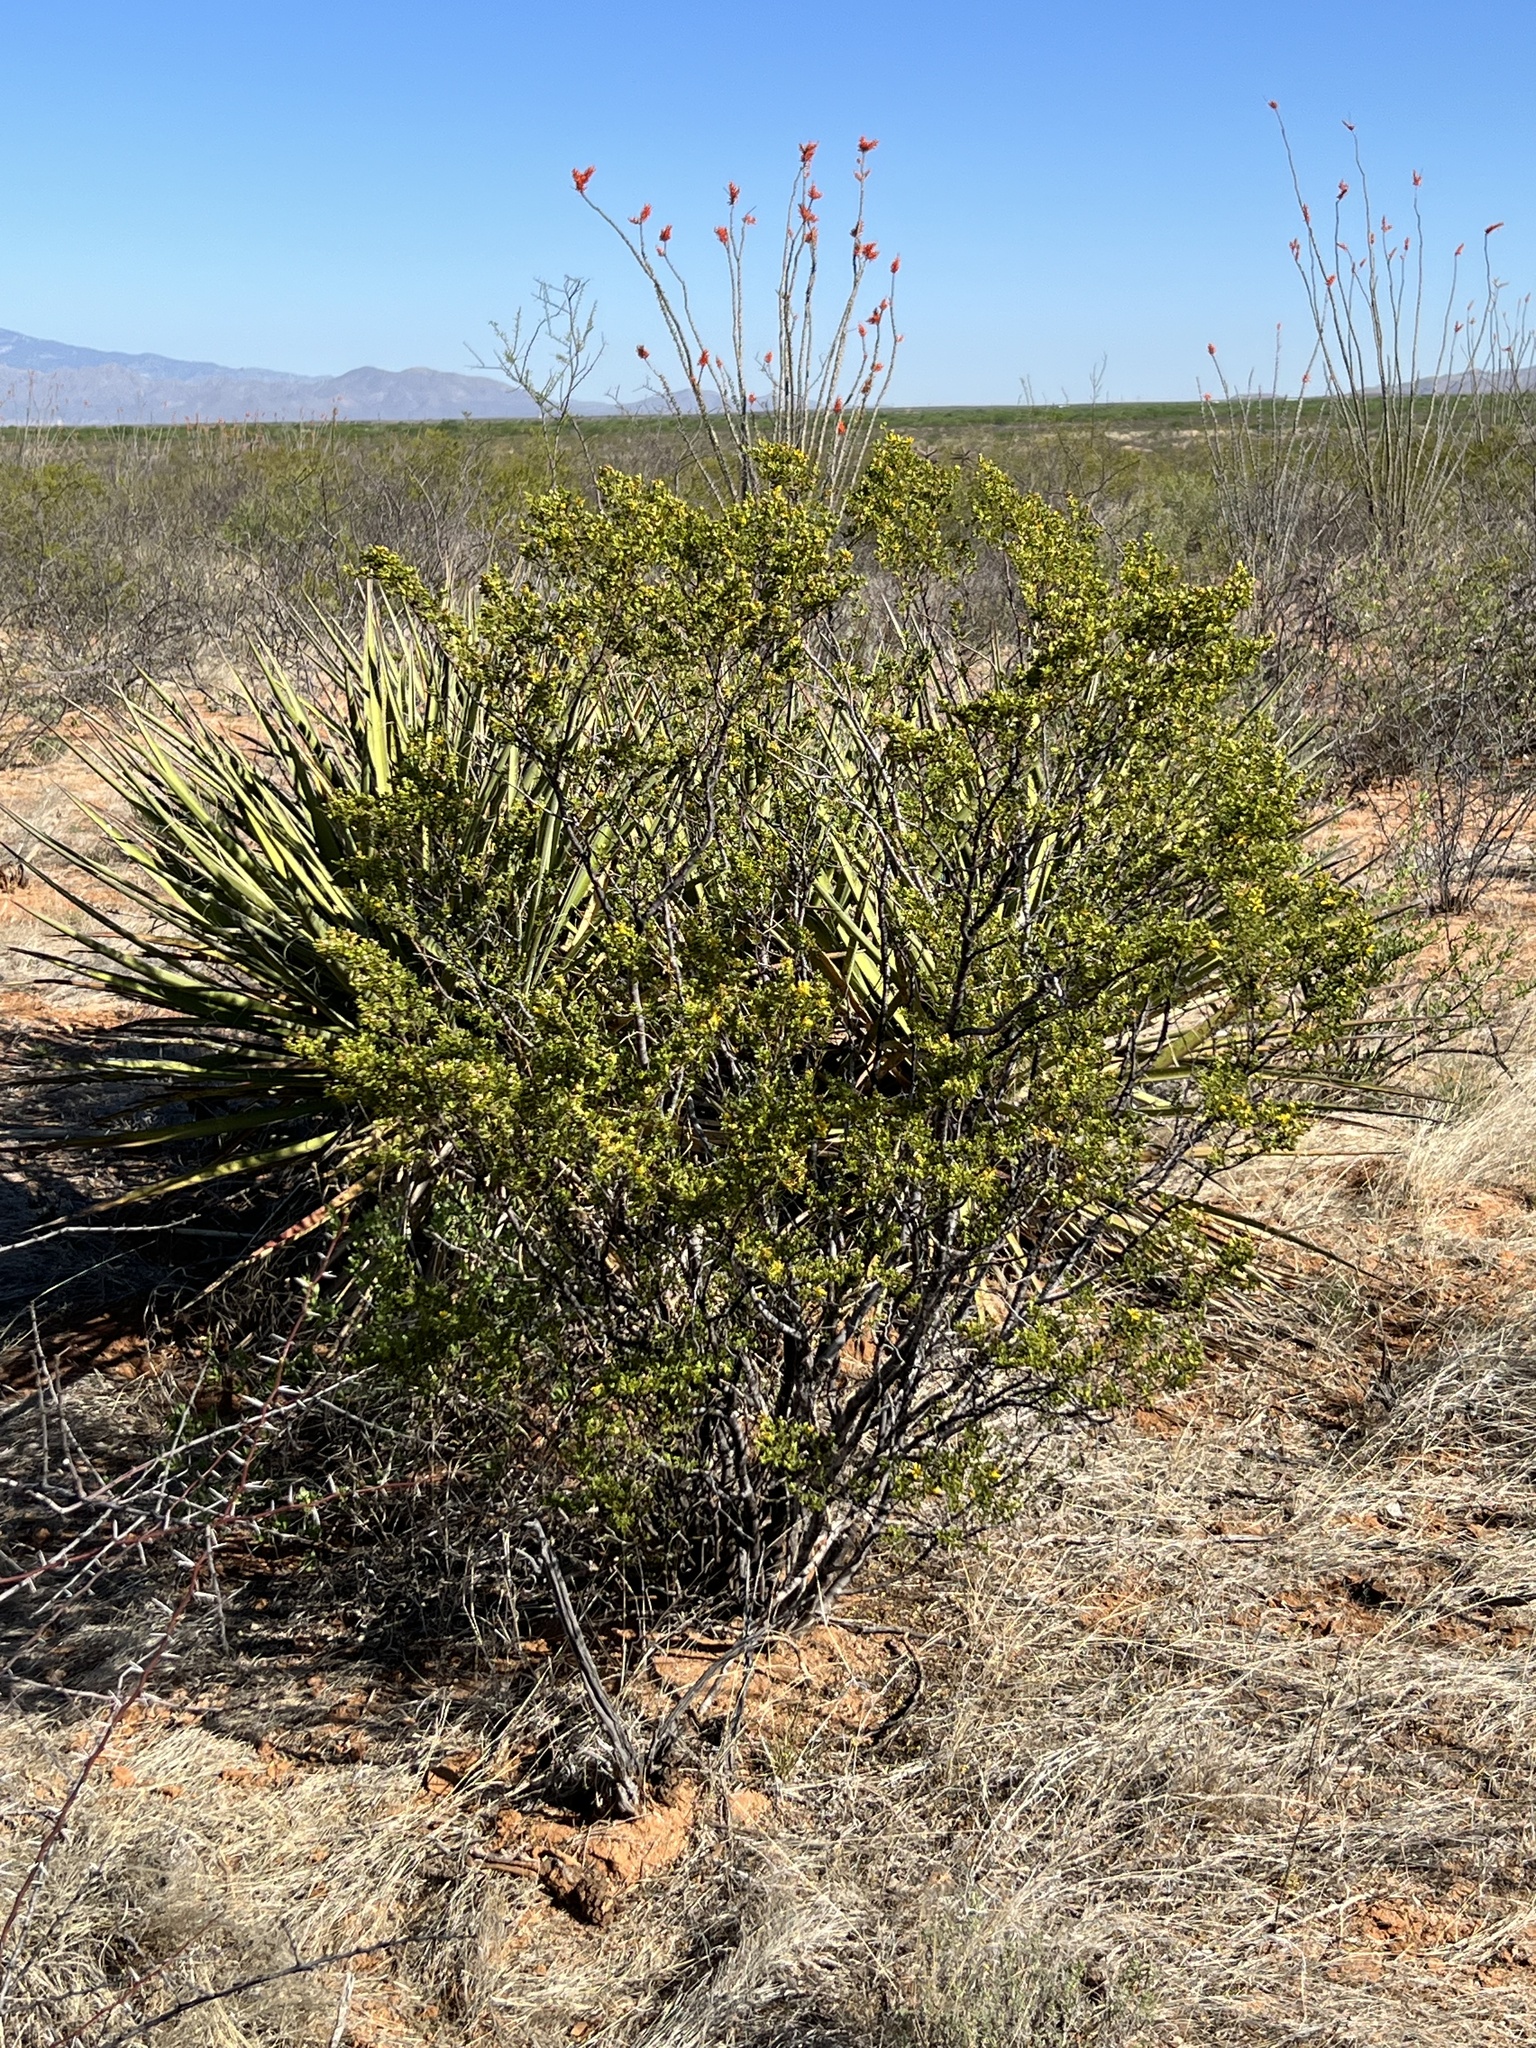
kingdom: Plantae
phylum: Tracheophyta
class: Magnoliopsida
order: Zygophyllales
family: Zygophyllaceae
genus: Larrea
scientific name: Larrea tridentata
